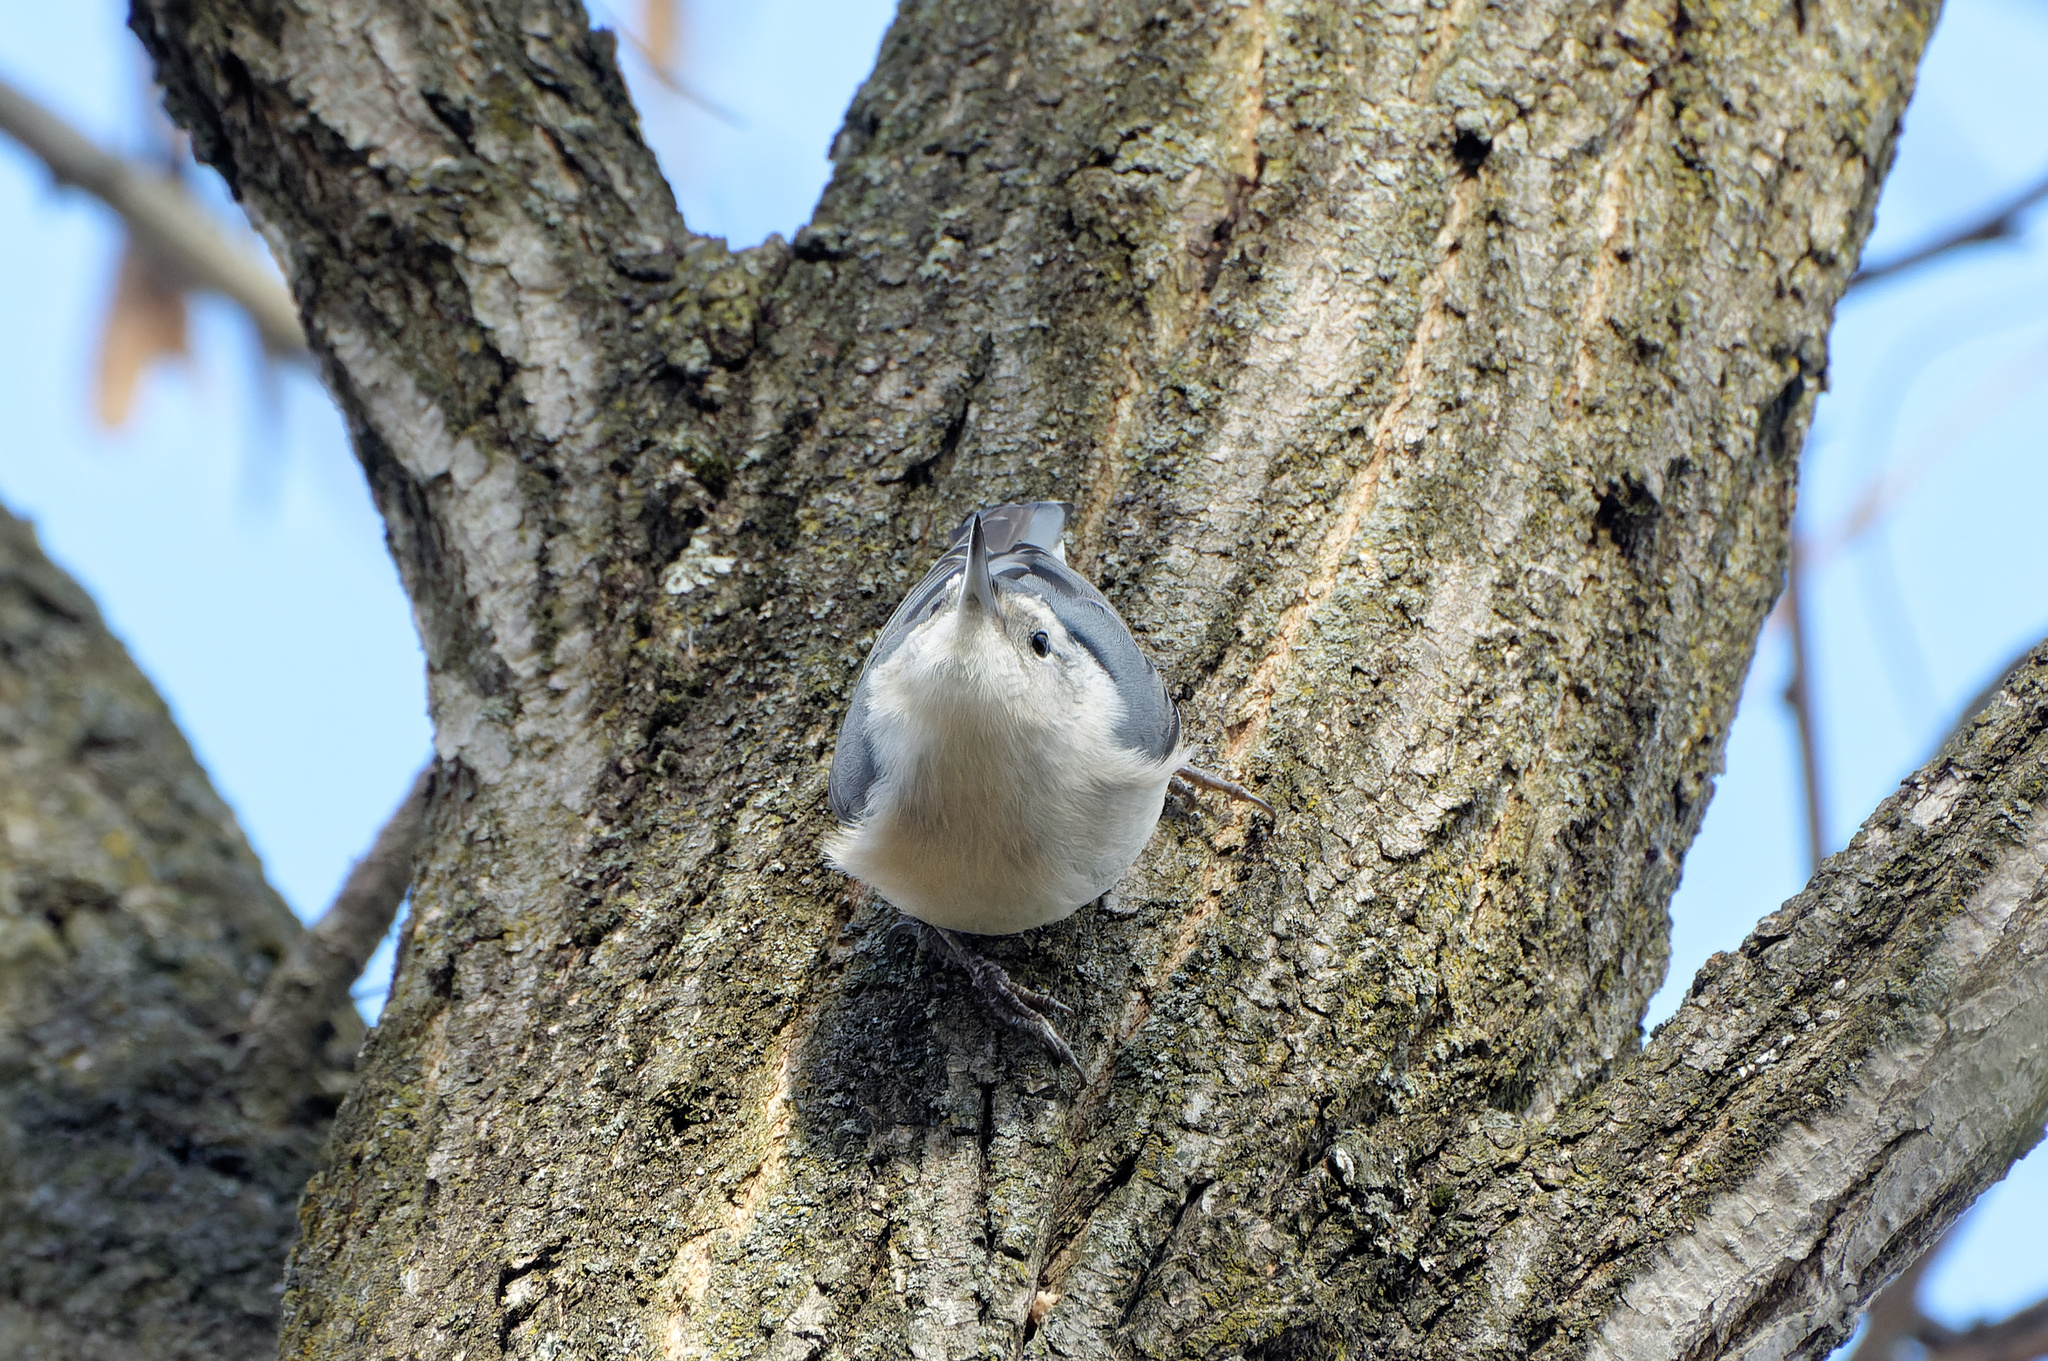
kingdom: Animalia
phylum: Chordata
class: Aves
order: Passeriformes
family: Sittidae
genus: Sitta
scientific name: Sitta carolinensis
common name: White-breasted nuthatch
